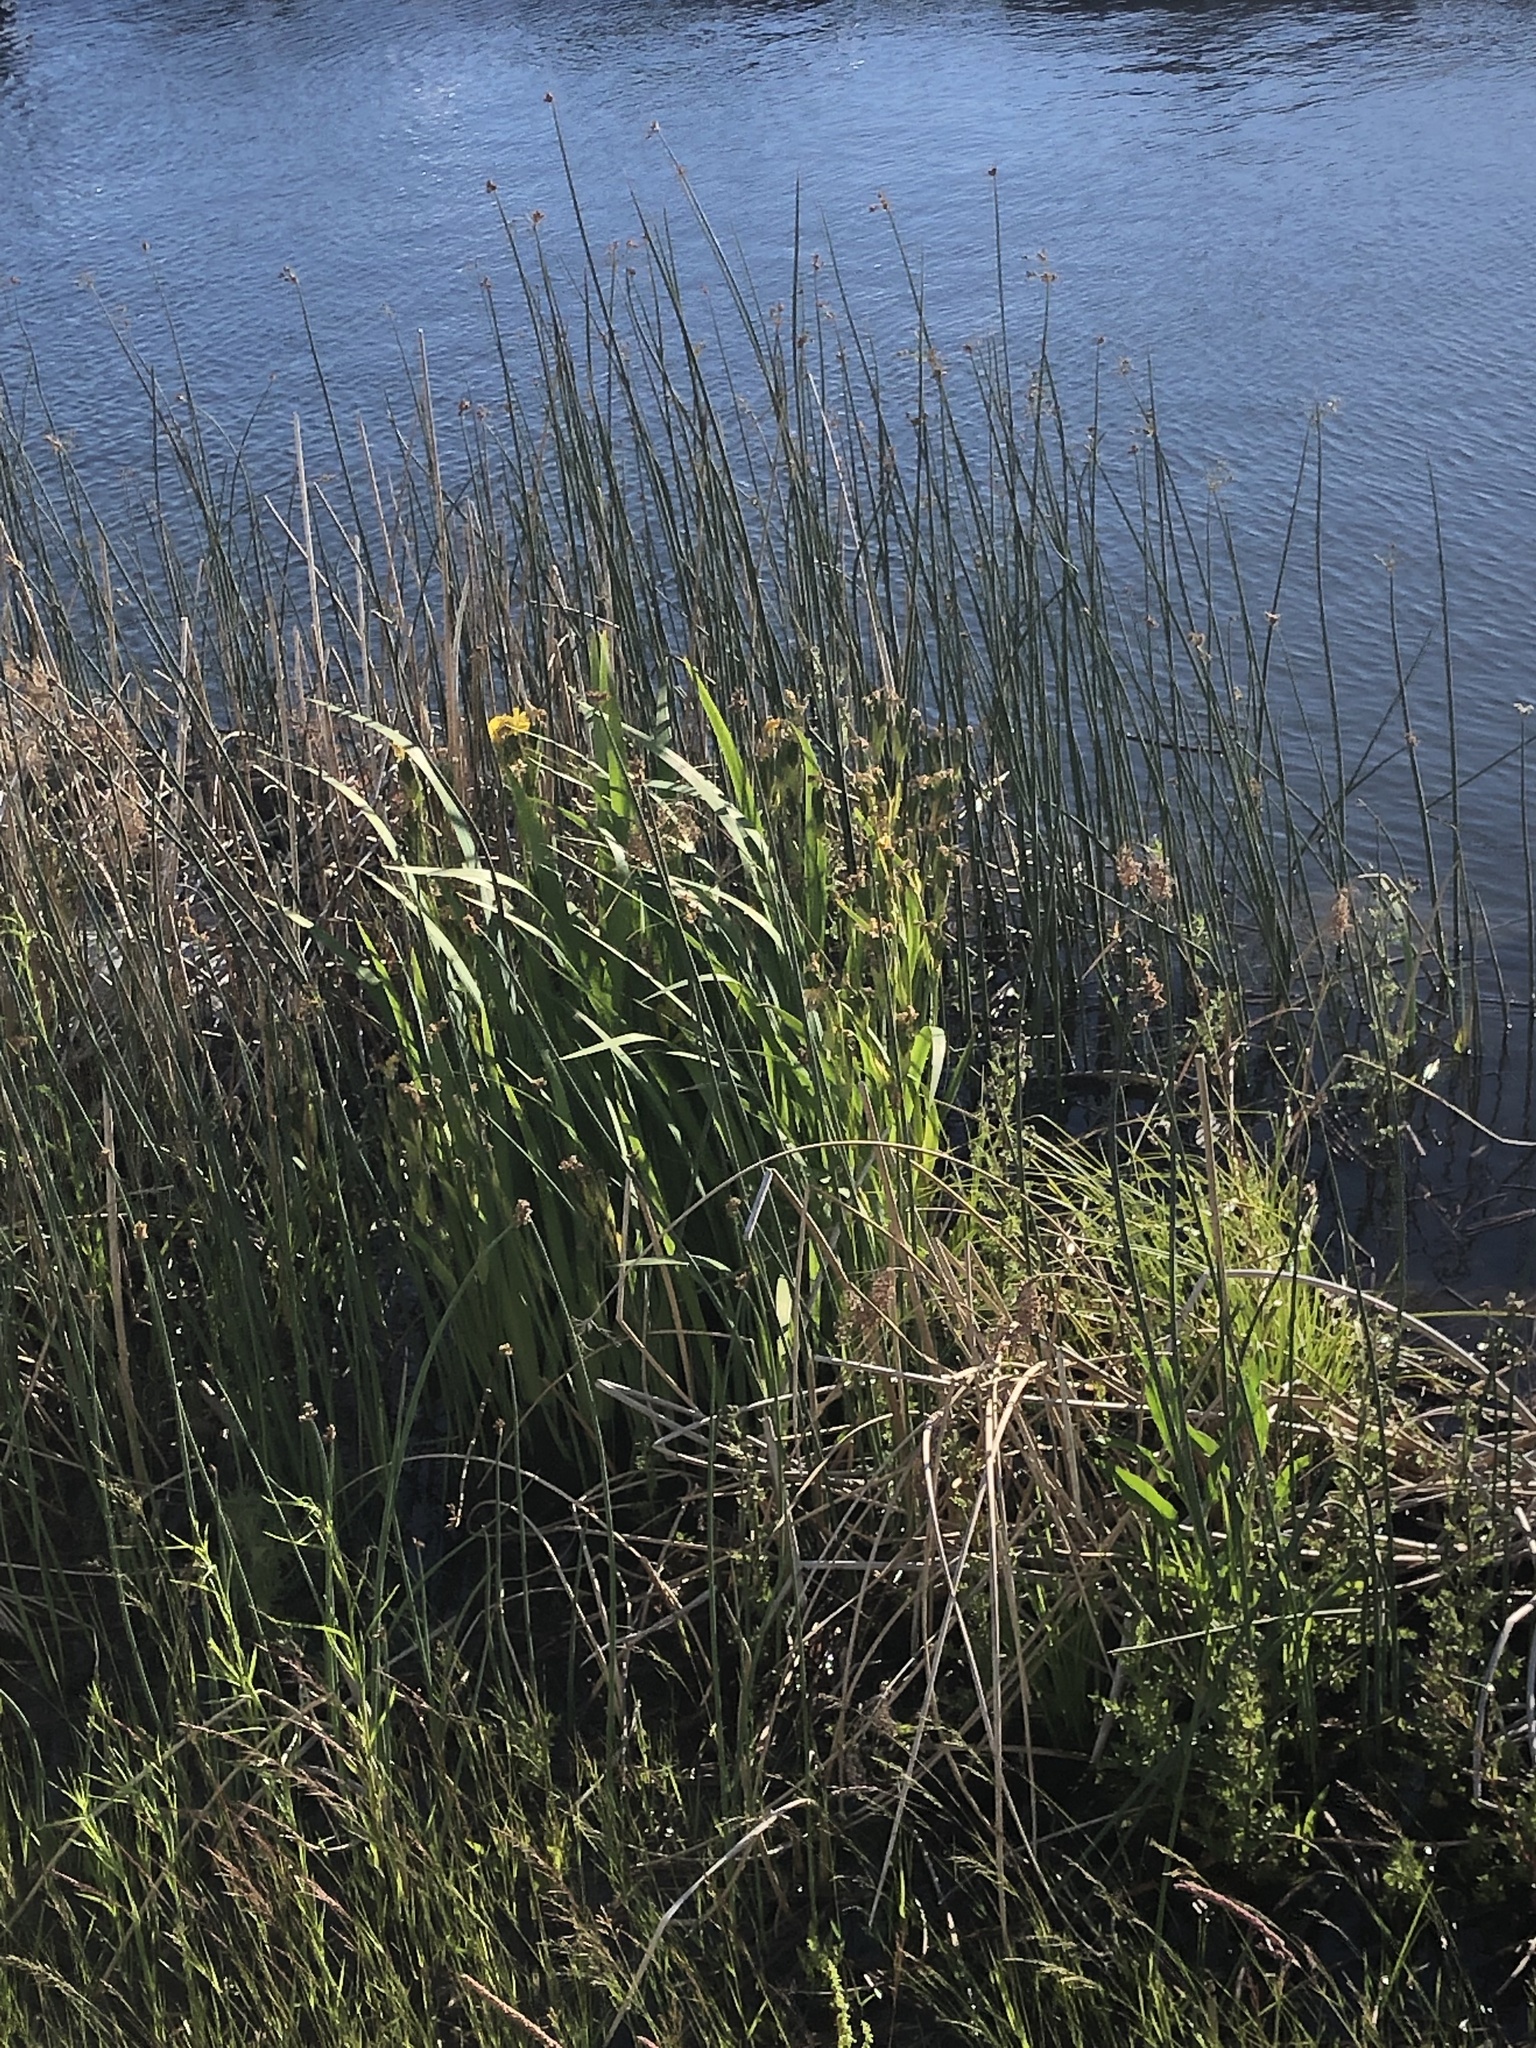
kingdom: Plantae
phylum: Tracheophyta
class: Liliopsida
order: Asparagales
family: Iridaceae
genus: Iris
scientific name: Iris pseudacorus
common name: Yellow flag
